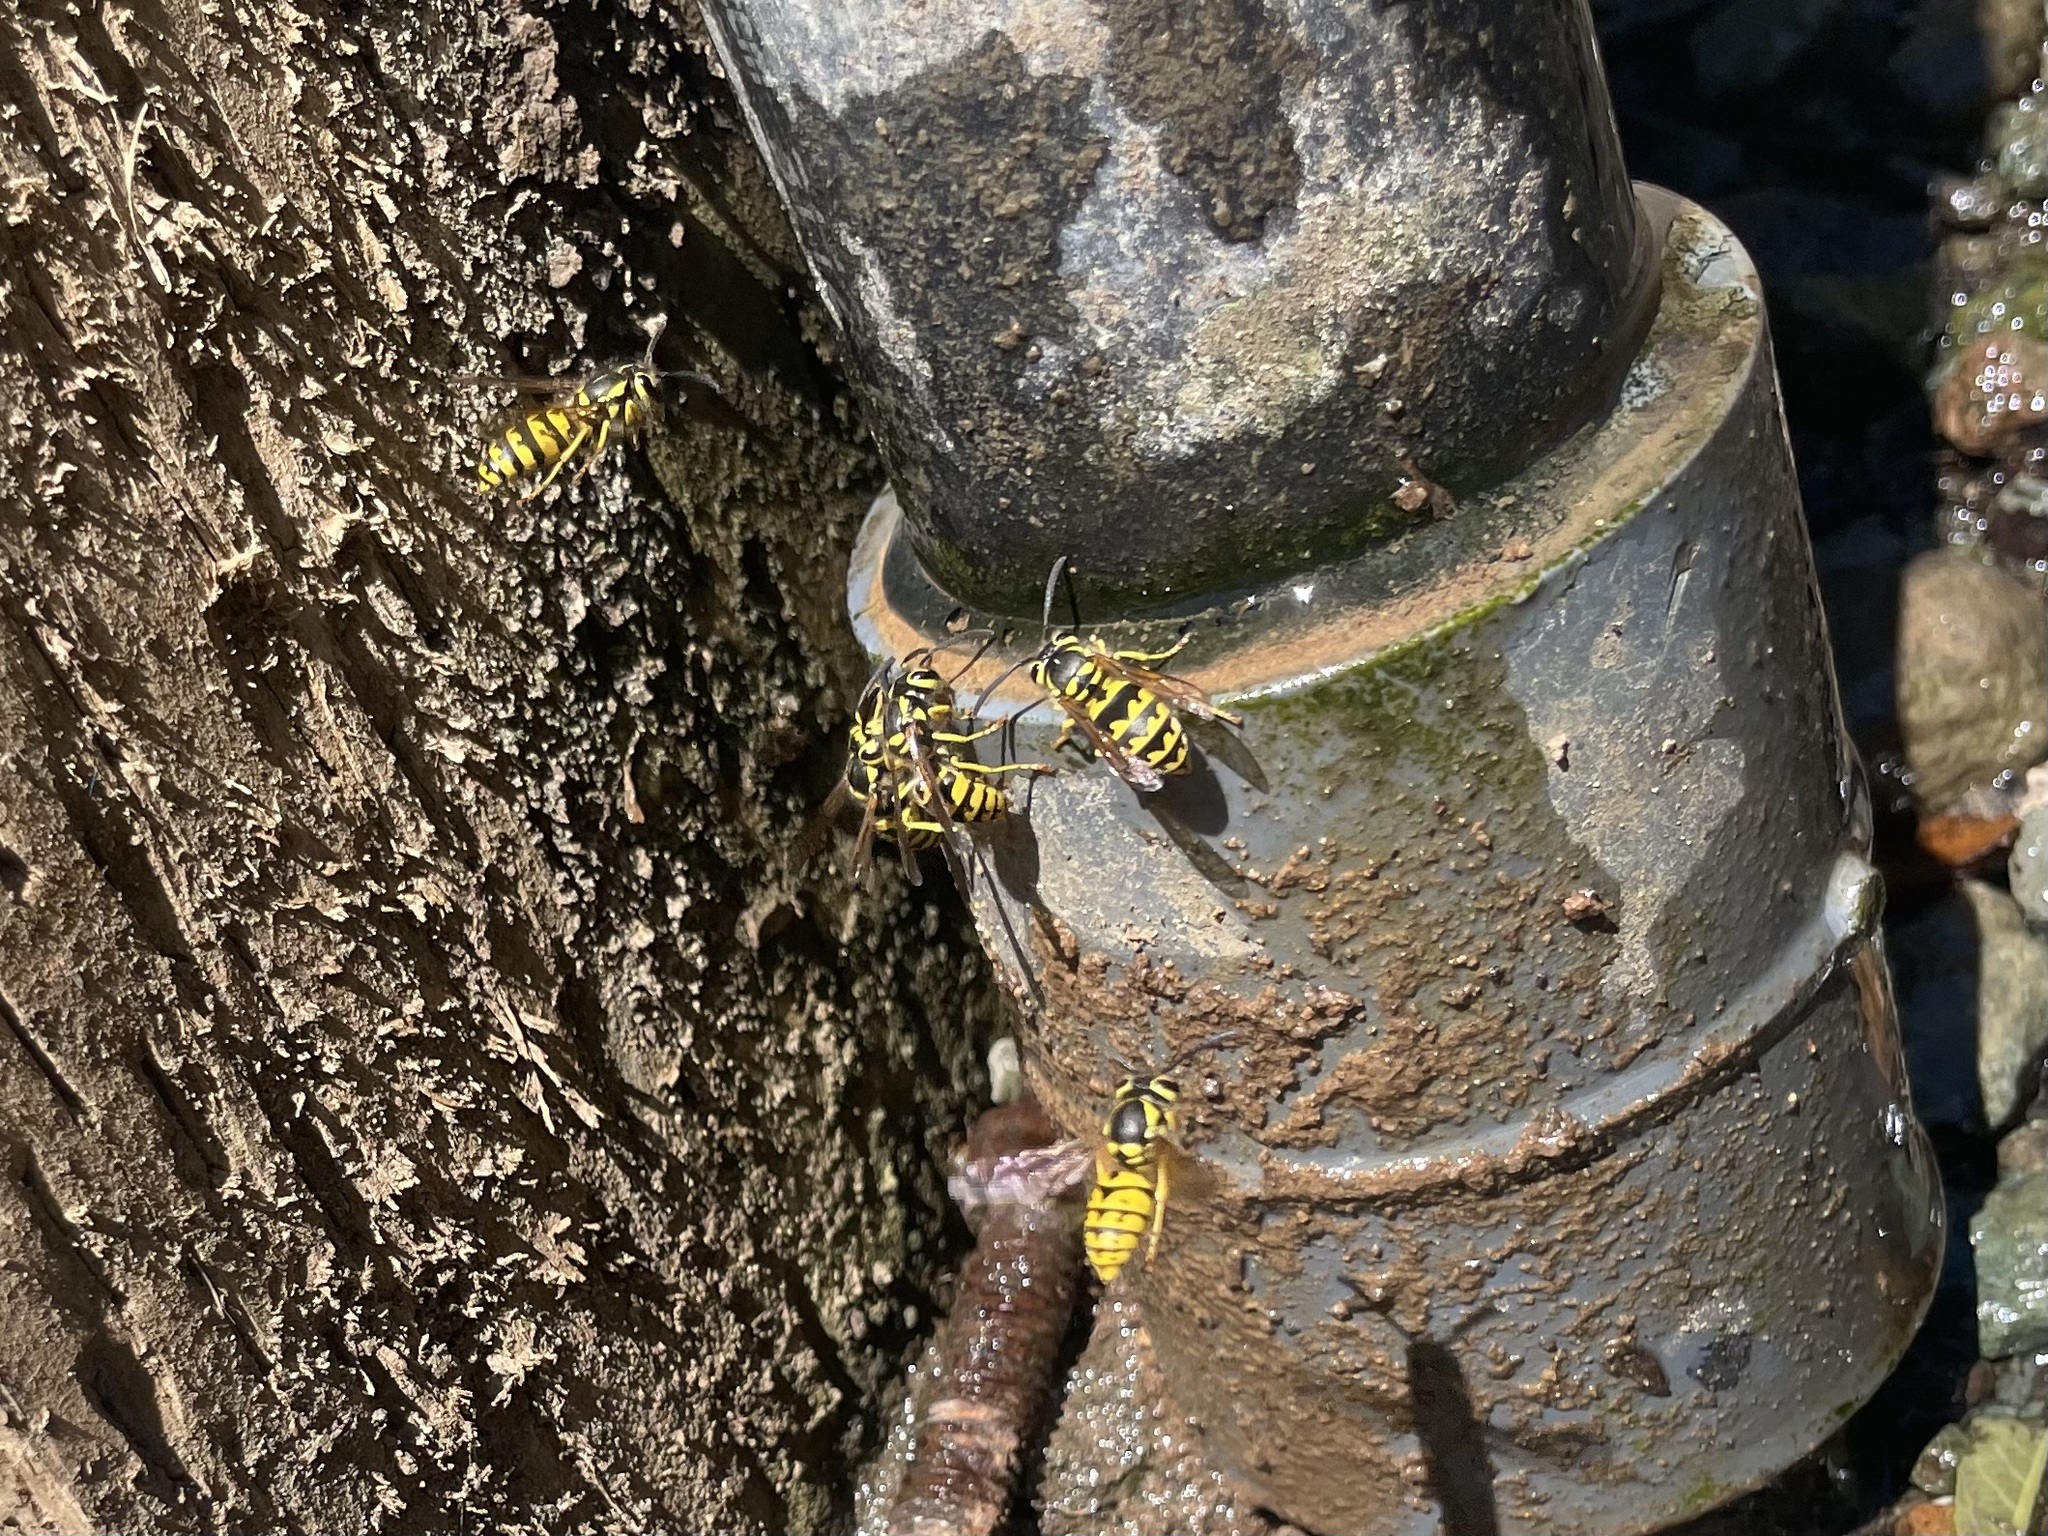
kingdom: Animalia
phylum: Arthropoda
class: Insecta
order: Hymenoptera
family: Vespidae
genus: Vespula
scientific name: Vespula pensylvanica
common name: Western yellowjacket
